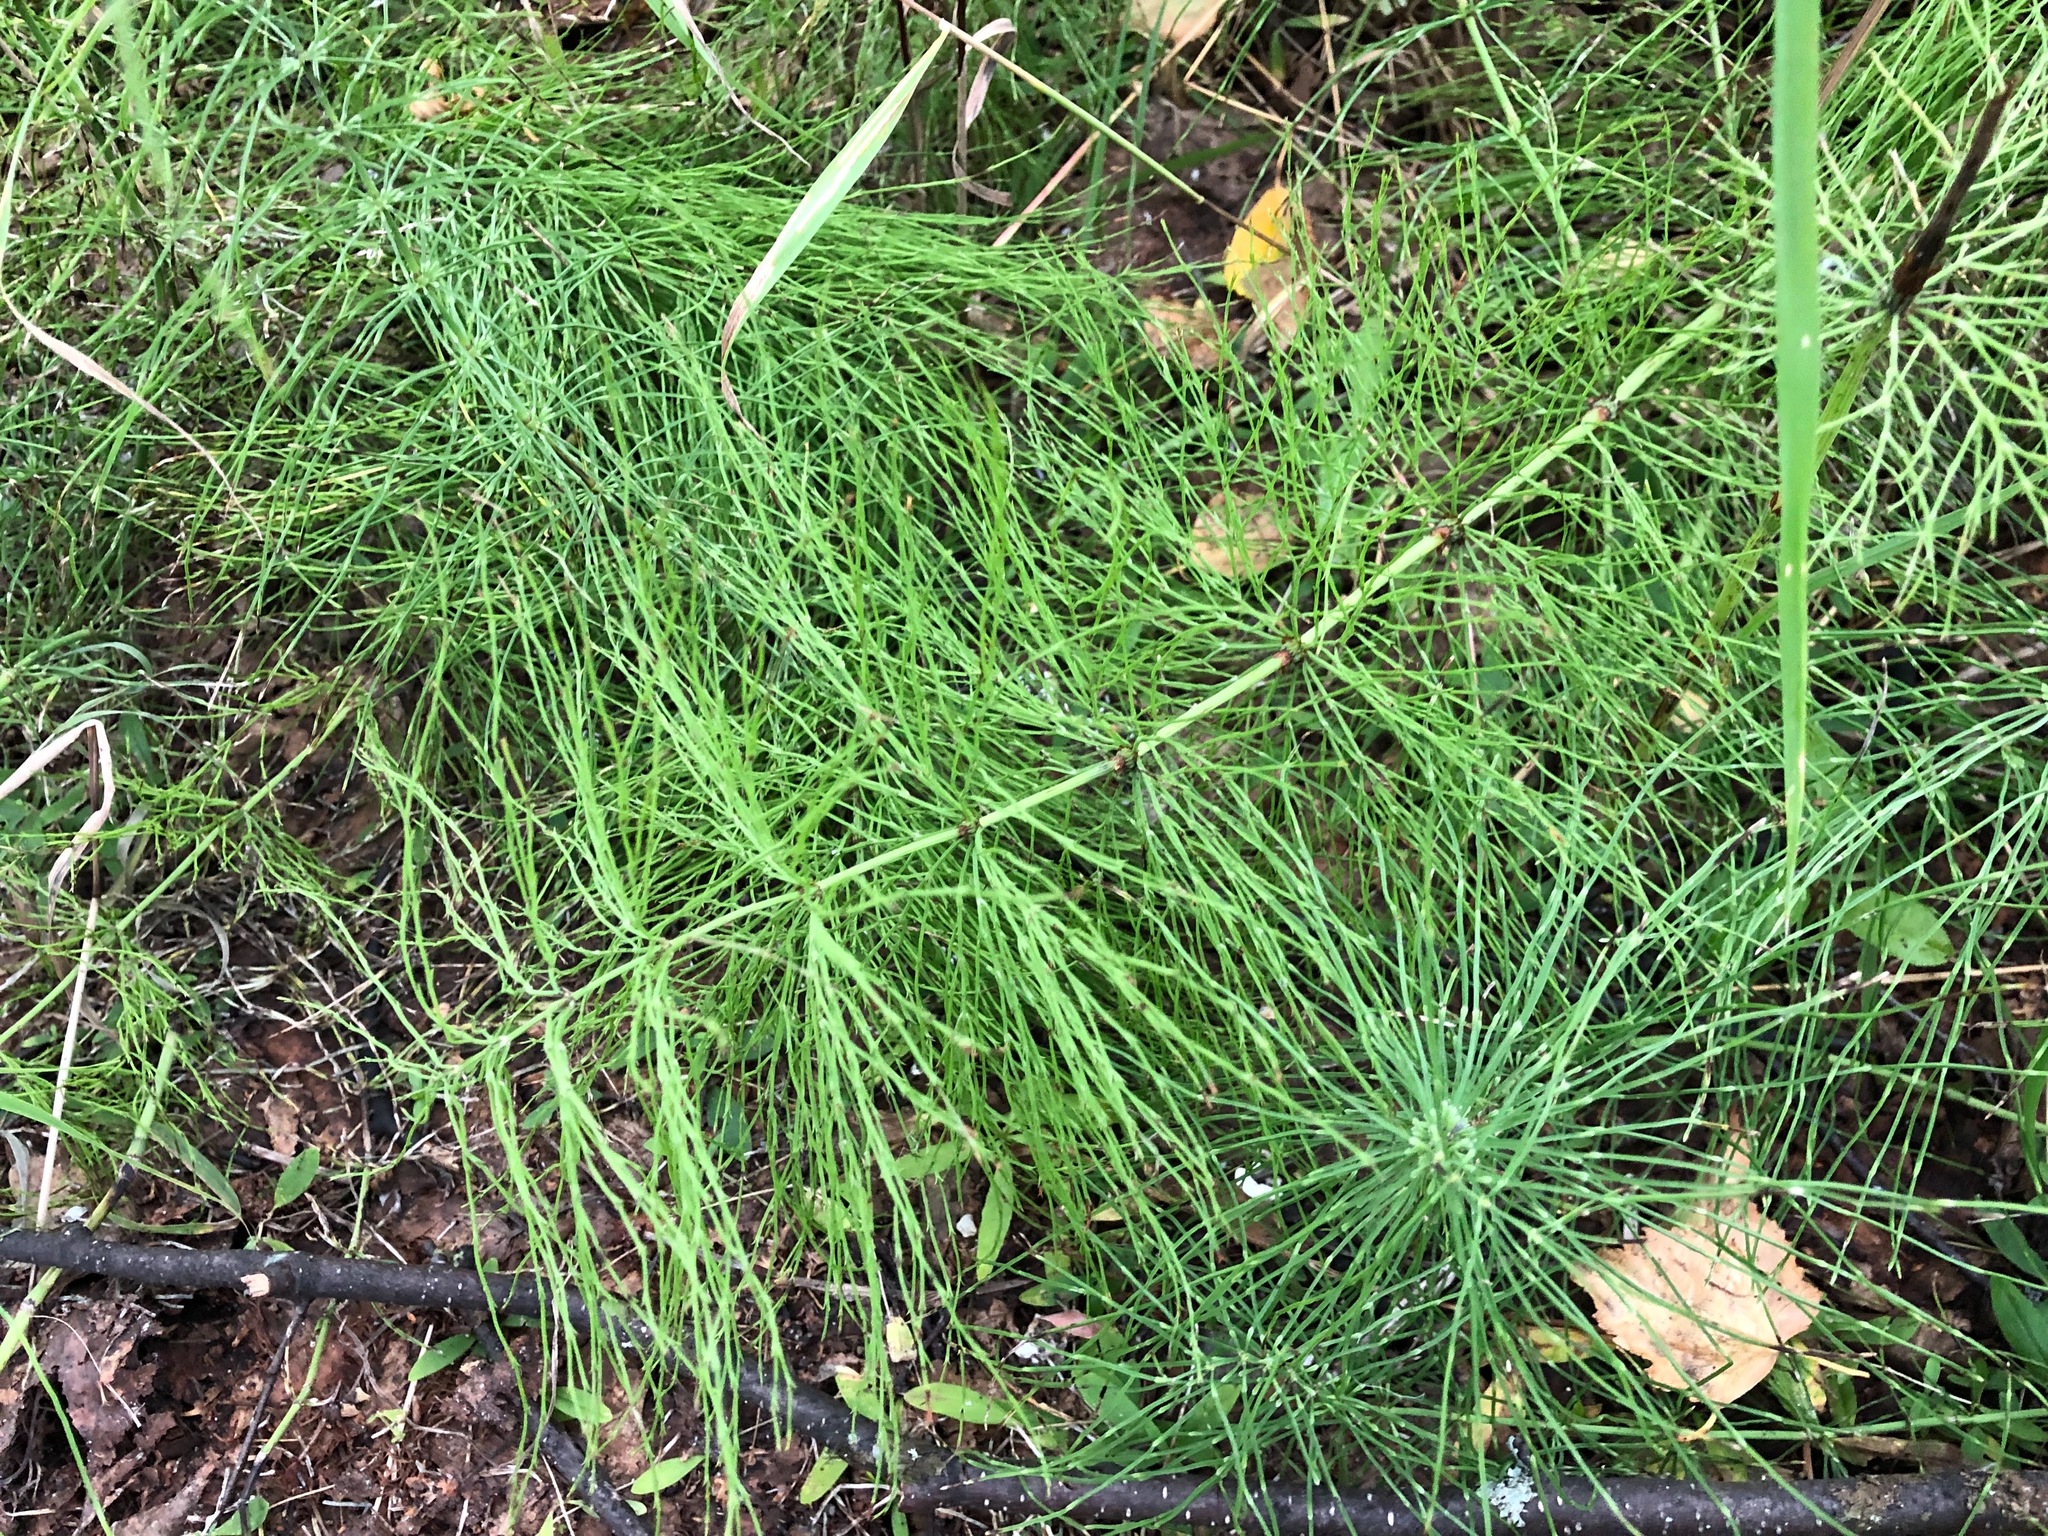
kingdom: Plantae
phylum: Tracheophyta
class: Polypodiopsida
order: Equisetales
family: Equisetaceae
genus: Equisetum
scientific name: Equisetum sylvaticum
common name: Wood horsetail
